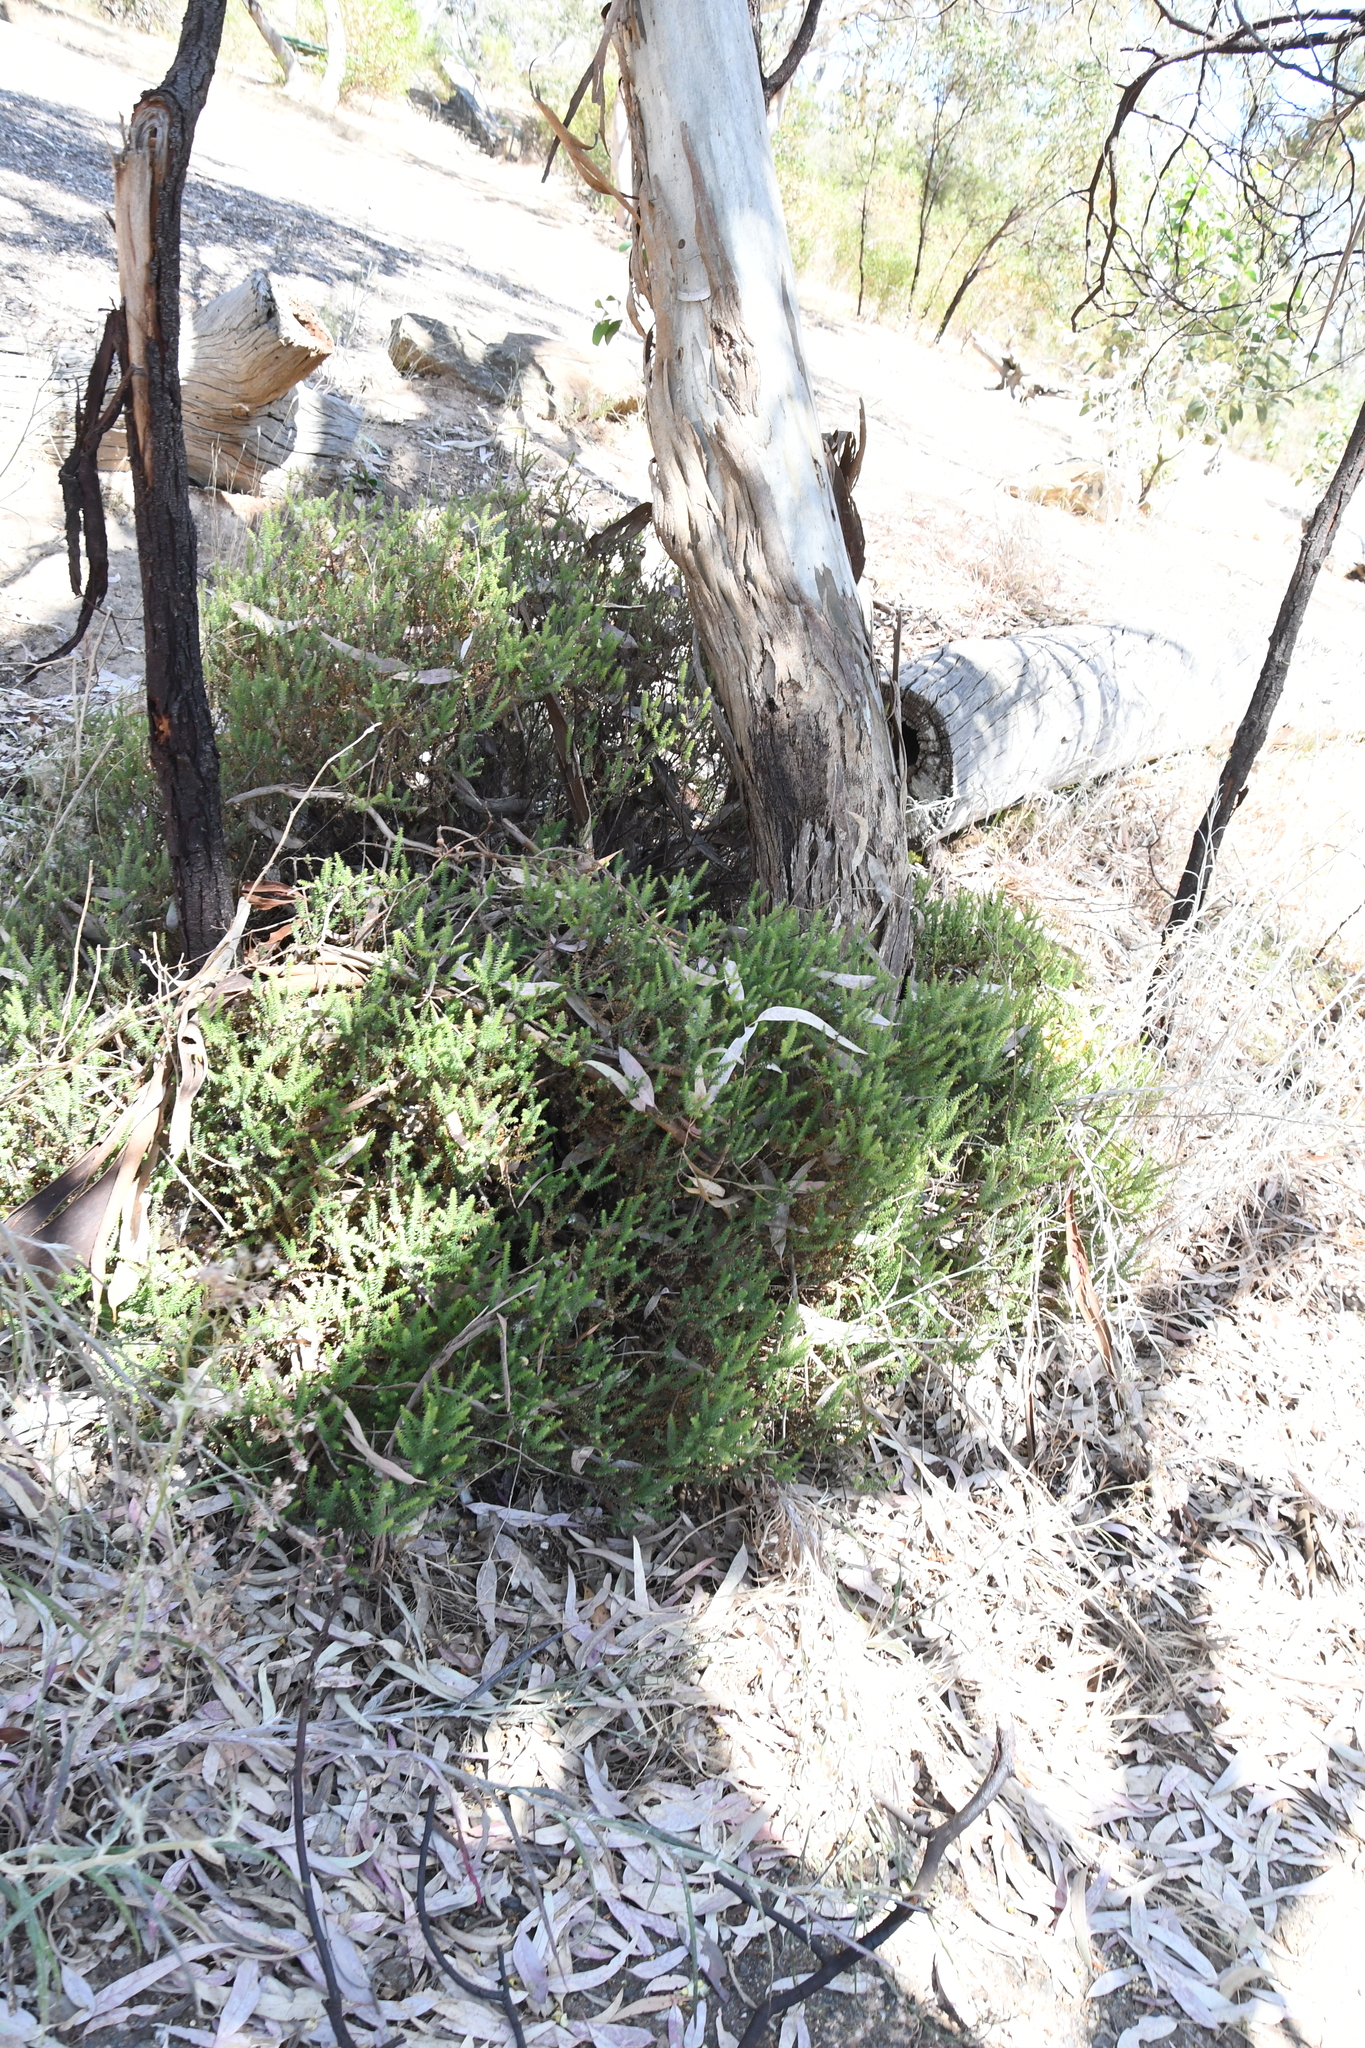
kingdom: Plantae
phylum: Tracheophyta
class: Magnoliopsida
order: Ericales
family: Ericaceae
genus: Acrotriche
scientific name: Acrotriche depressa
